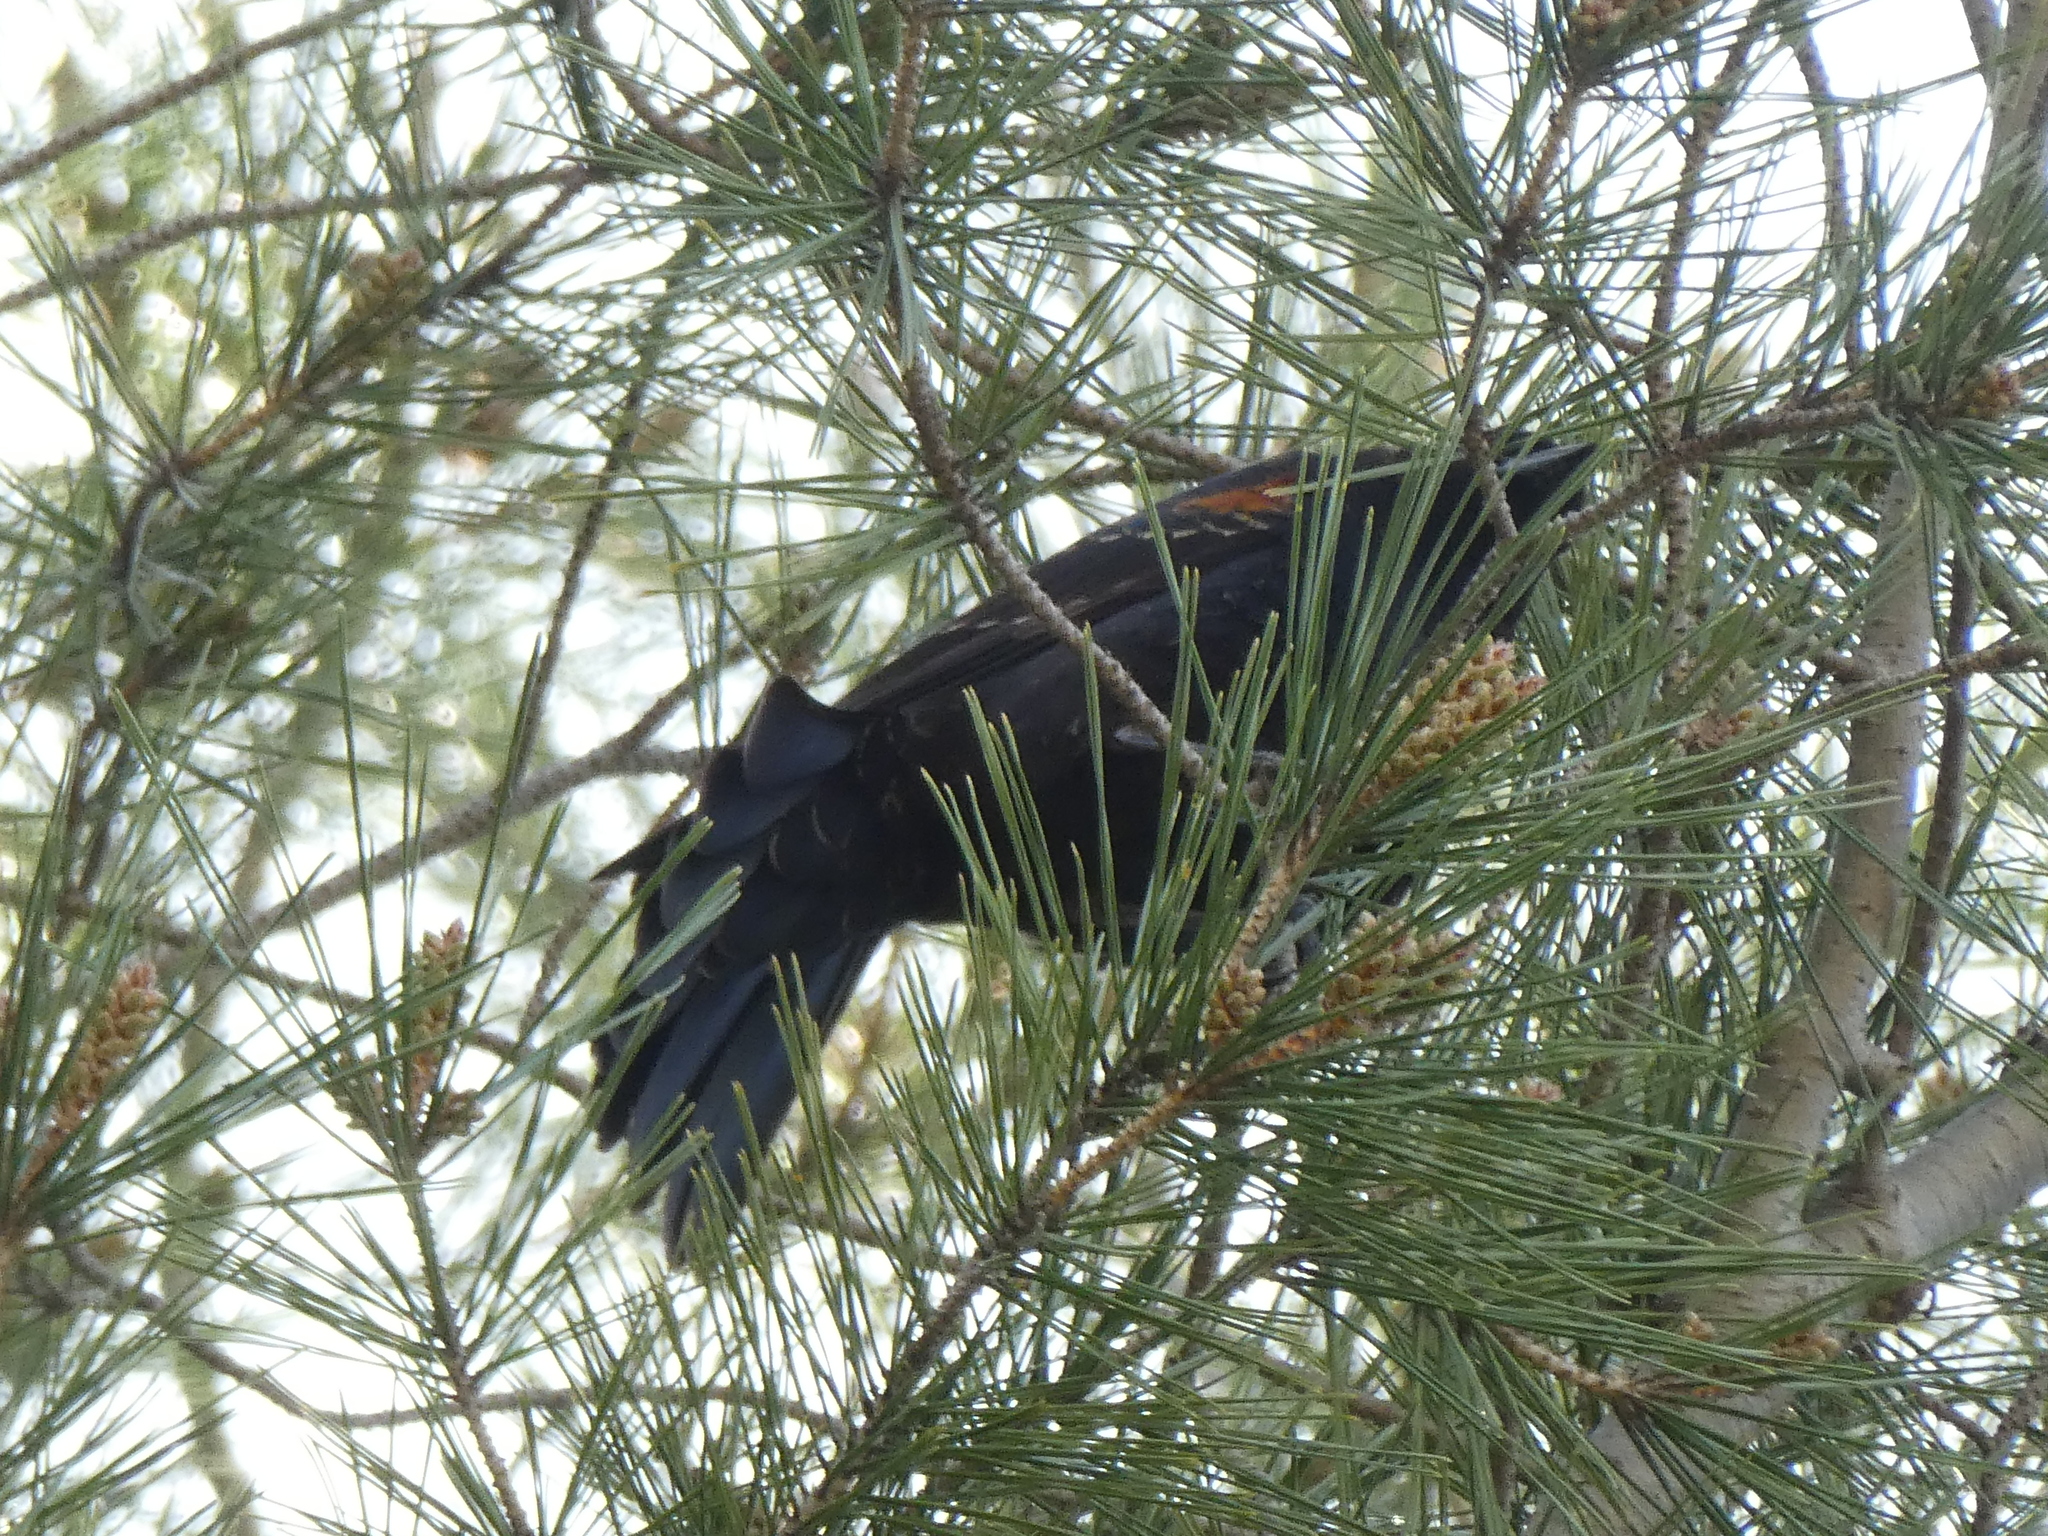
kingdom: Animalia
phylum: Chordata
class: Aves
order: Passeriformes
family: Icteridae
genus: Agelaius
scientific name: Agelaius phoeniceus
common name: Red-winged blackbird
